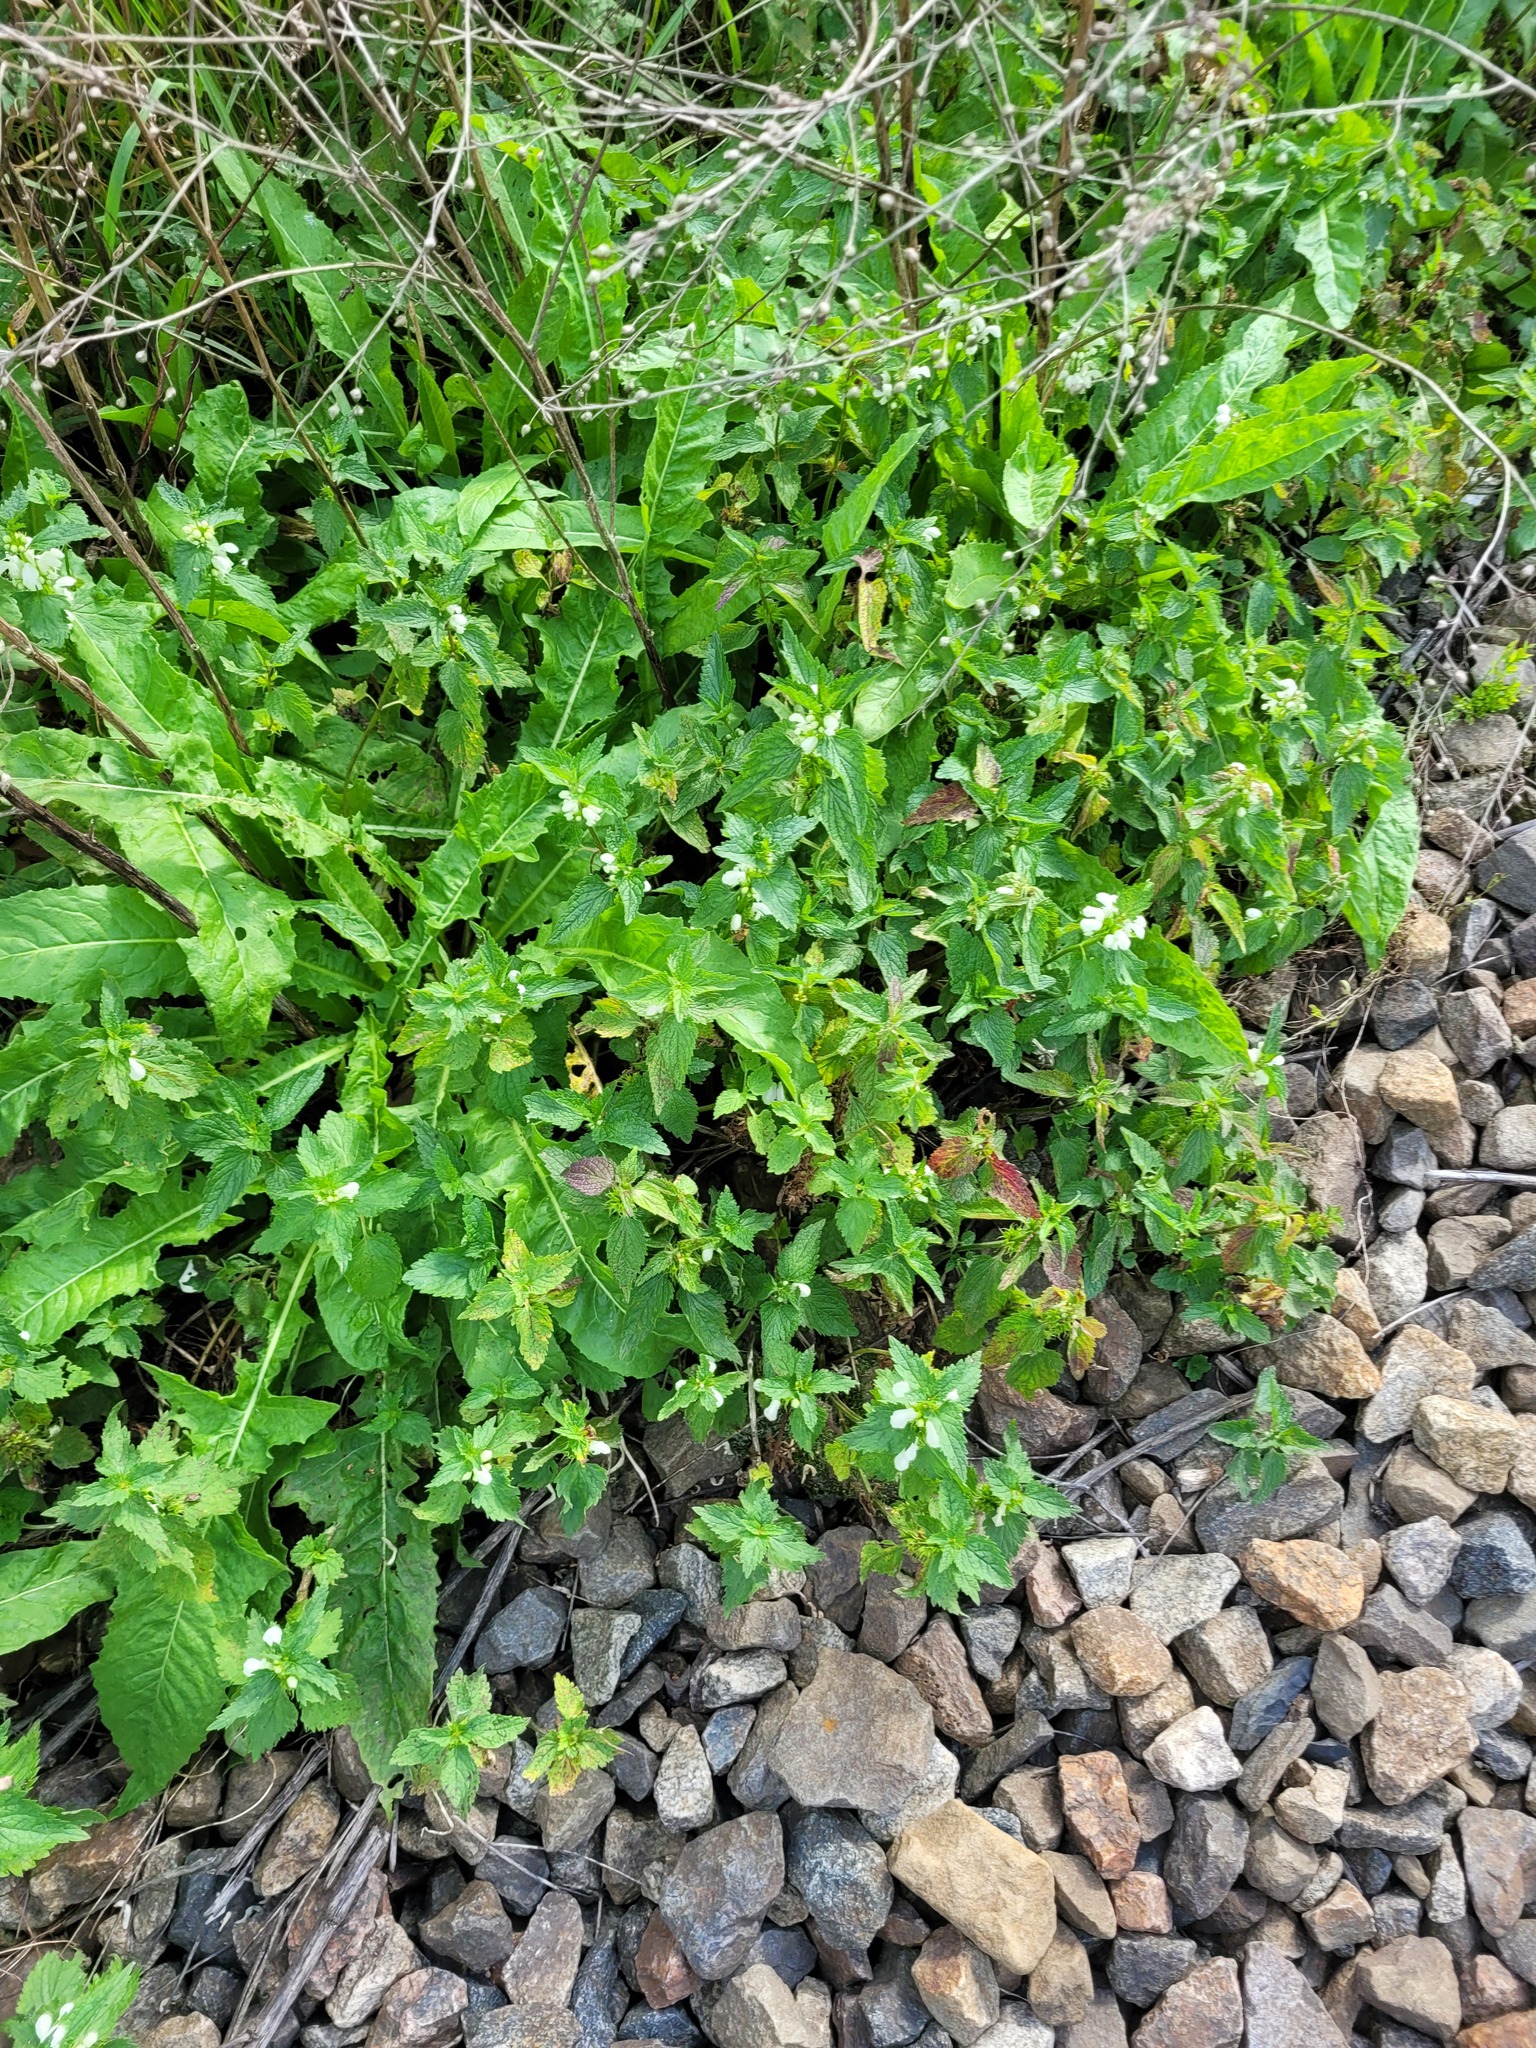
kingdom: Plantae
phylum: Tracheophyta
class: Magnoliopsida
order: Lamiales
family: Lamiaceae
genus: Lamium
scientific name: Lamium album
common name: White dead-nettle
